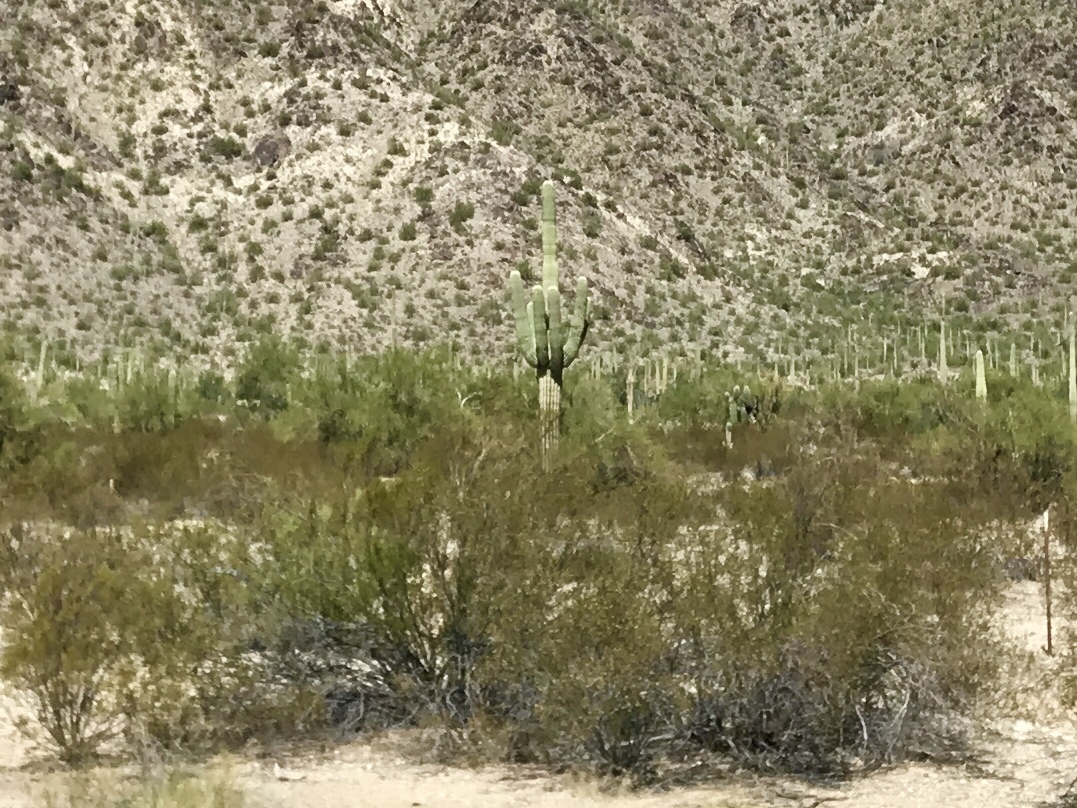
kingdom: Plantae
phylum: Tracheophyta
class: Magnoliopsida
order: Zygophyllales
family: Zygophyllaceae
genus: Larrea
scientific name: Larrea tridentata
